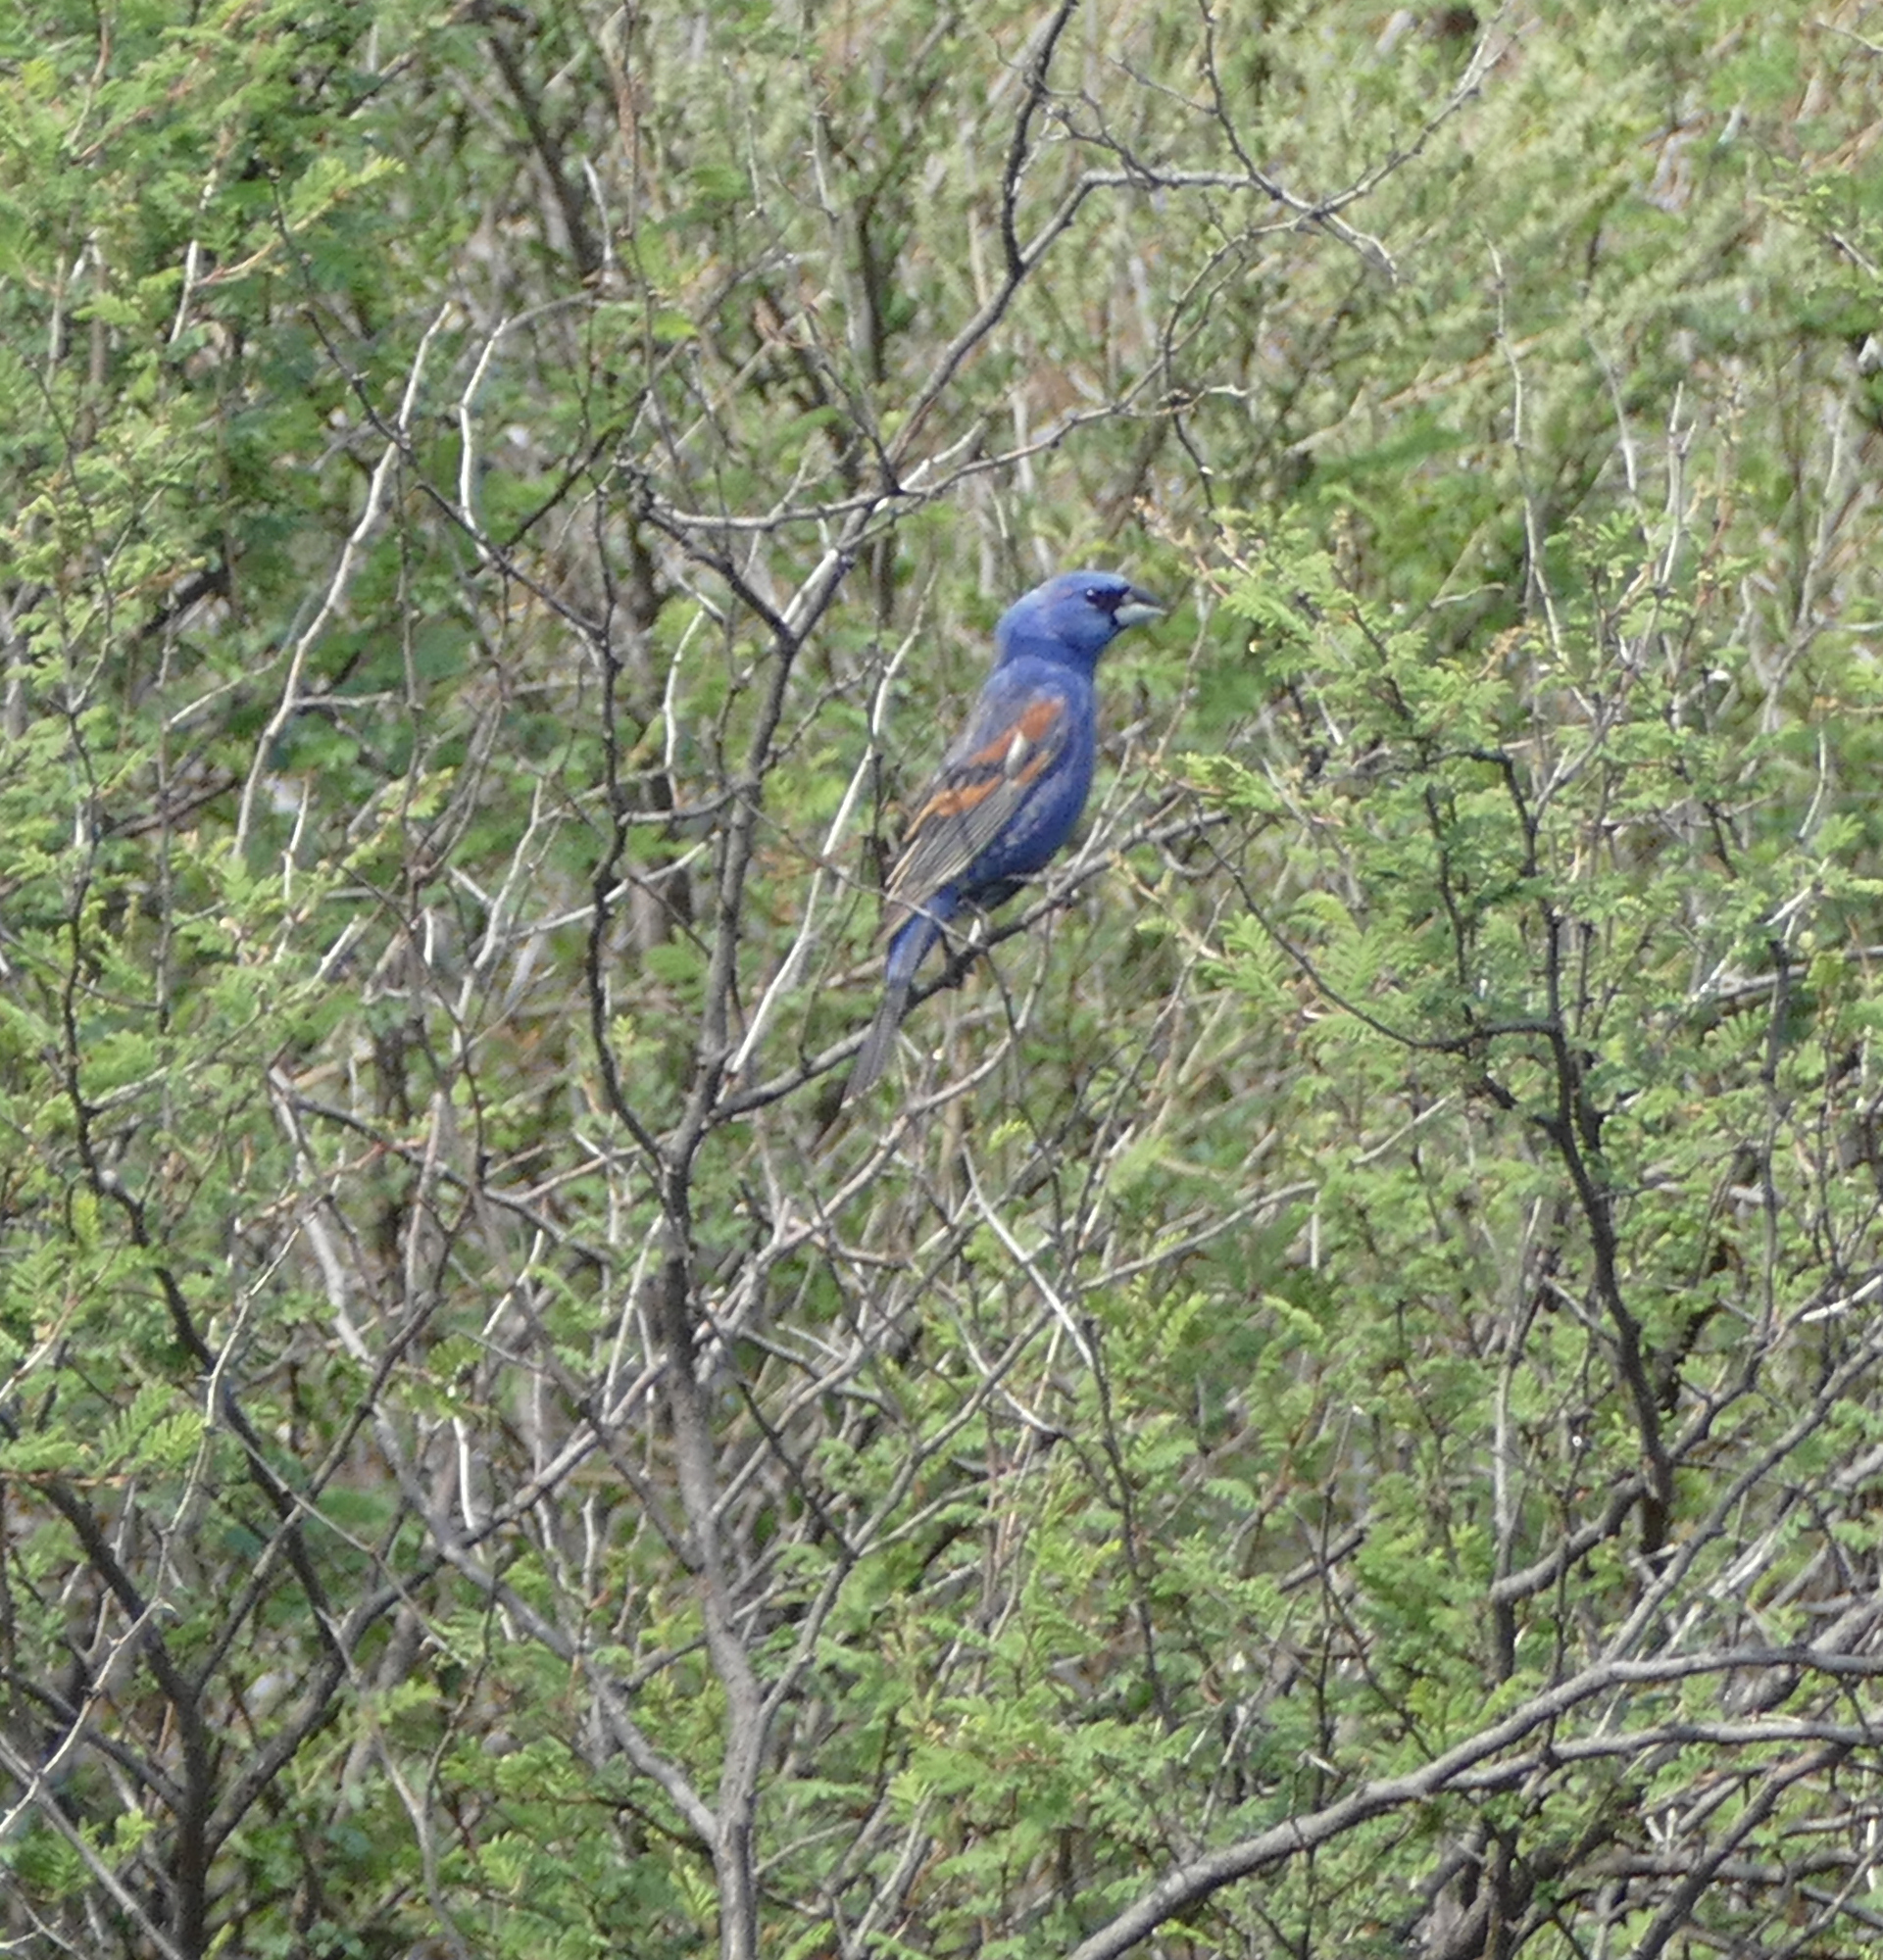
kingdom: Animalia
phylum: Chordata
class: Aves
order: Passeriformes
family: Cardinalidae
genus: Passerina
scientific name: Passerina caerulea
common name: Blue grosbeak
